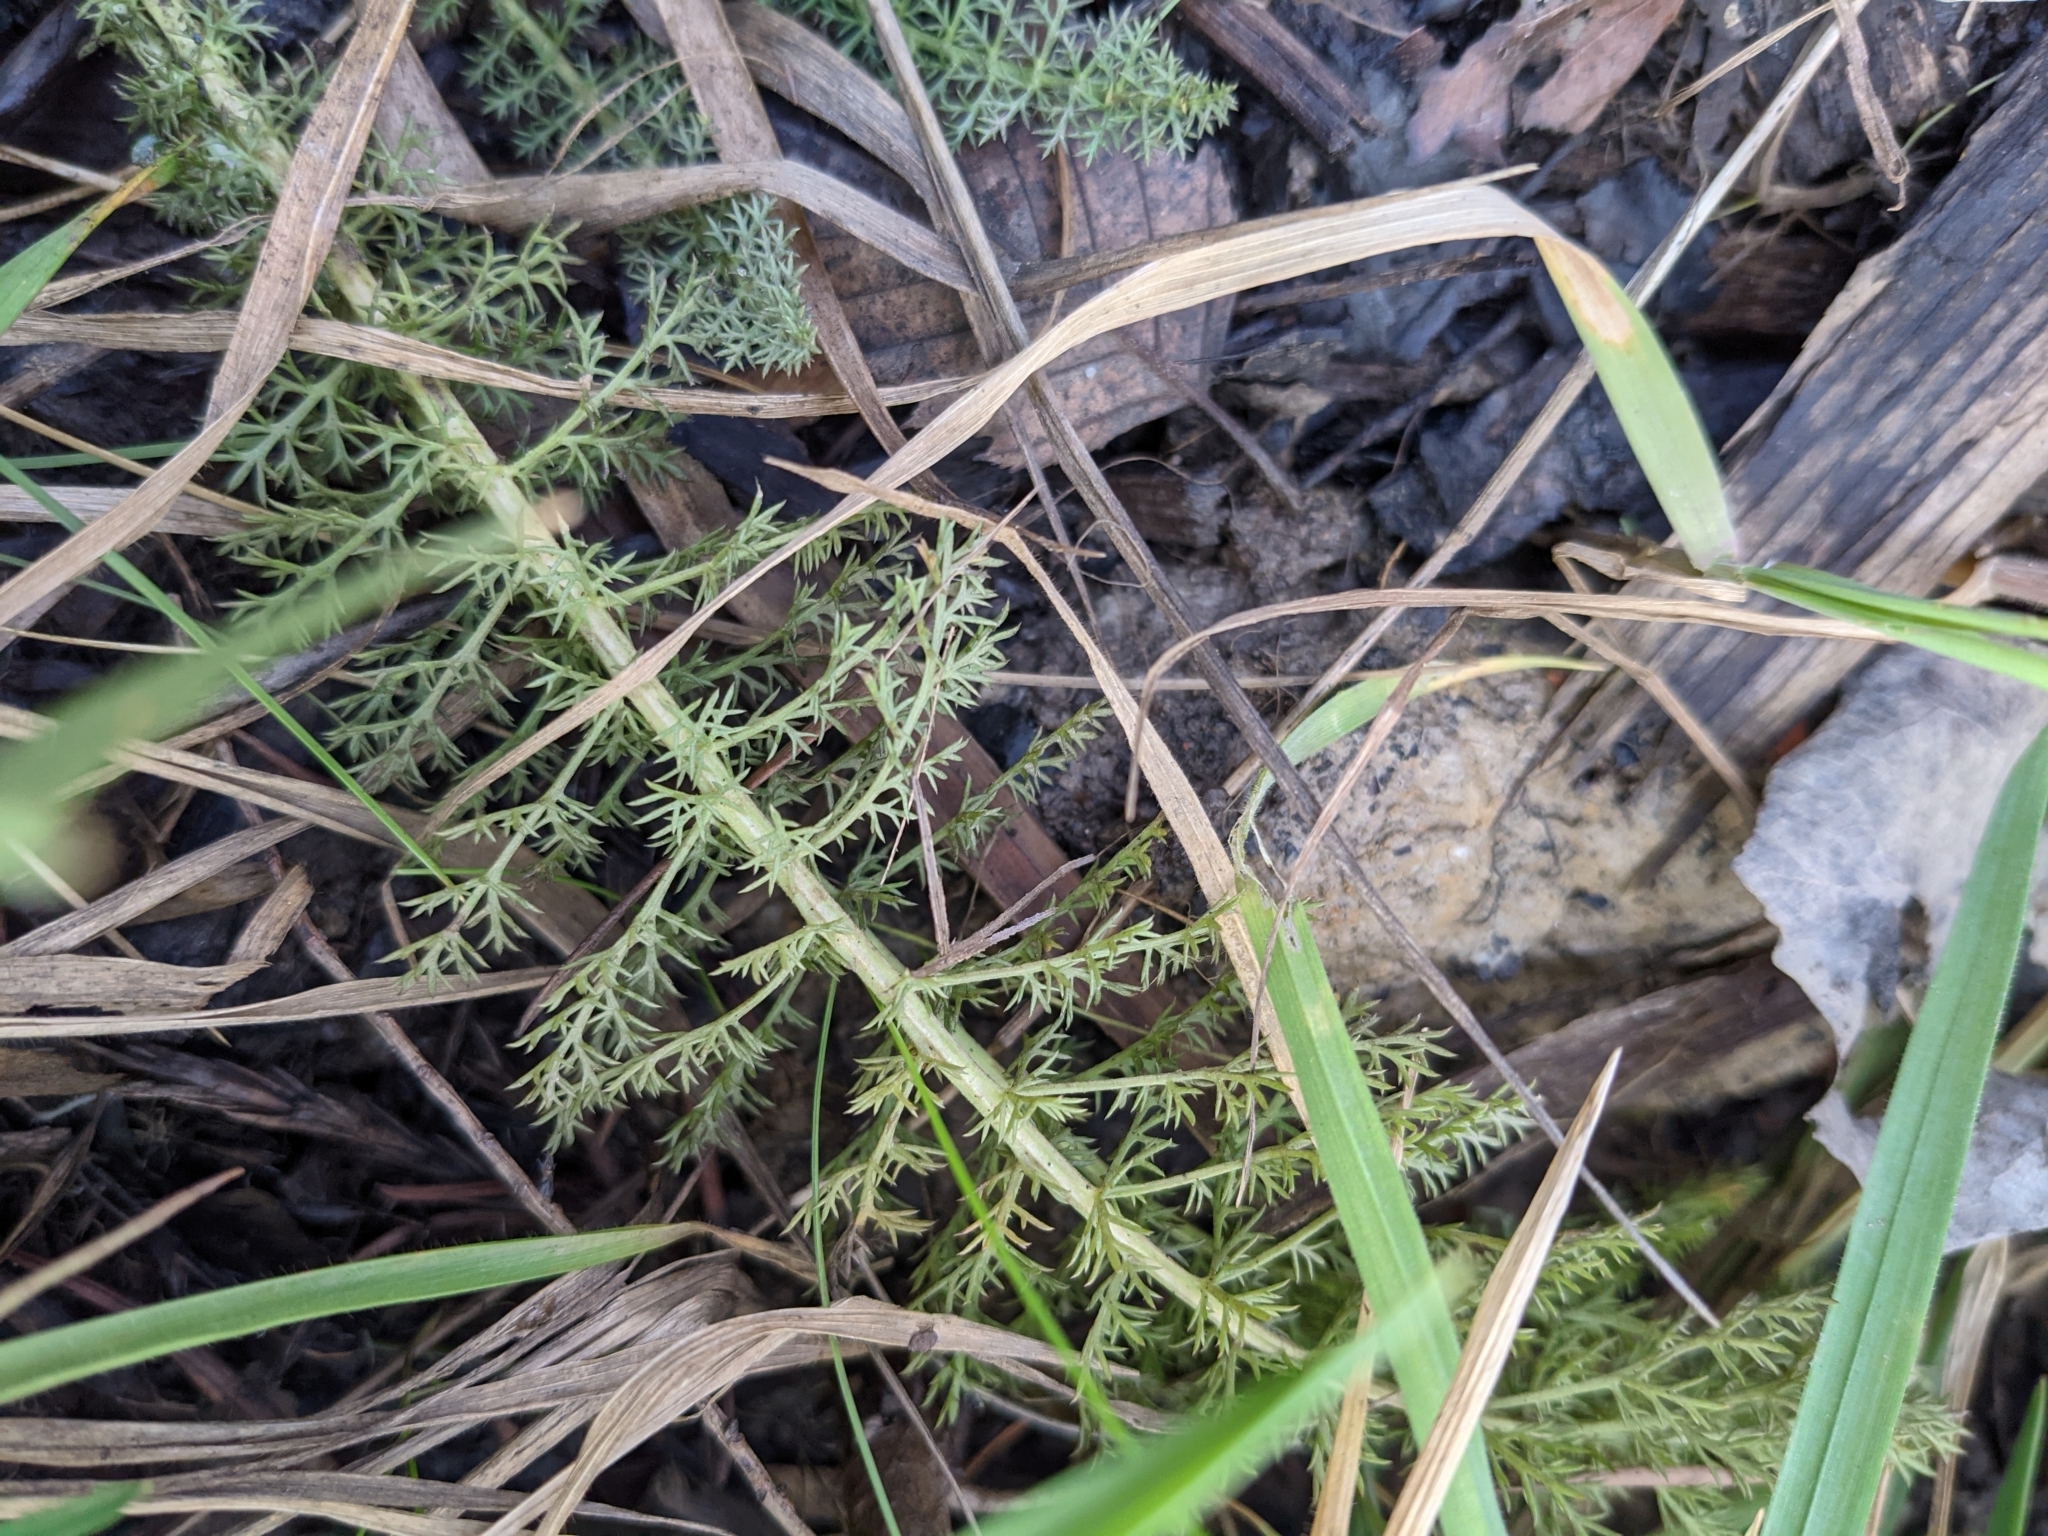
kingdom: Plantae
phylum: Tracheophyta
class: Magnoliopsida
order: Asterales
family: Asteraceae
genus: Achillea
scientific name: Achillea millefolium
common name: Yarrow
